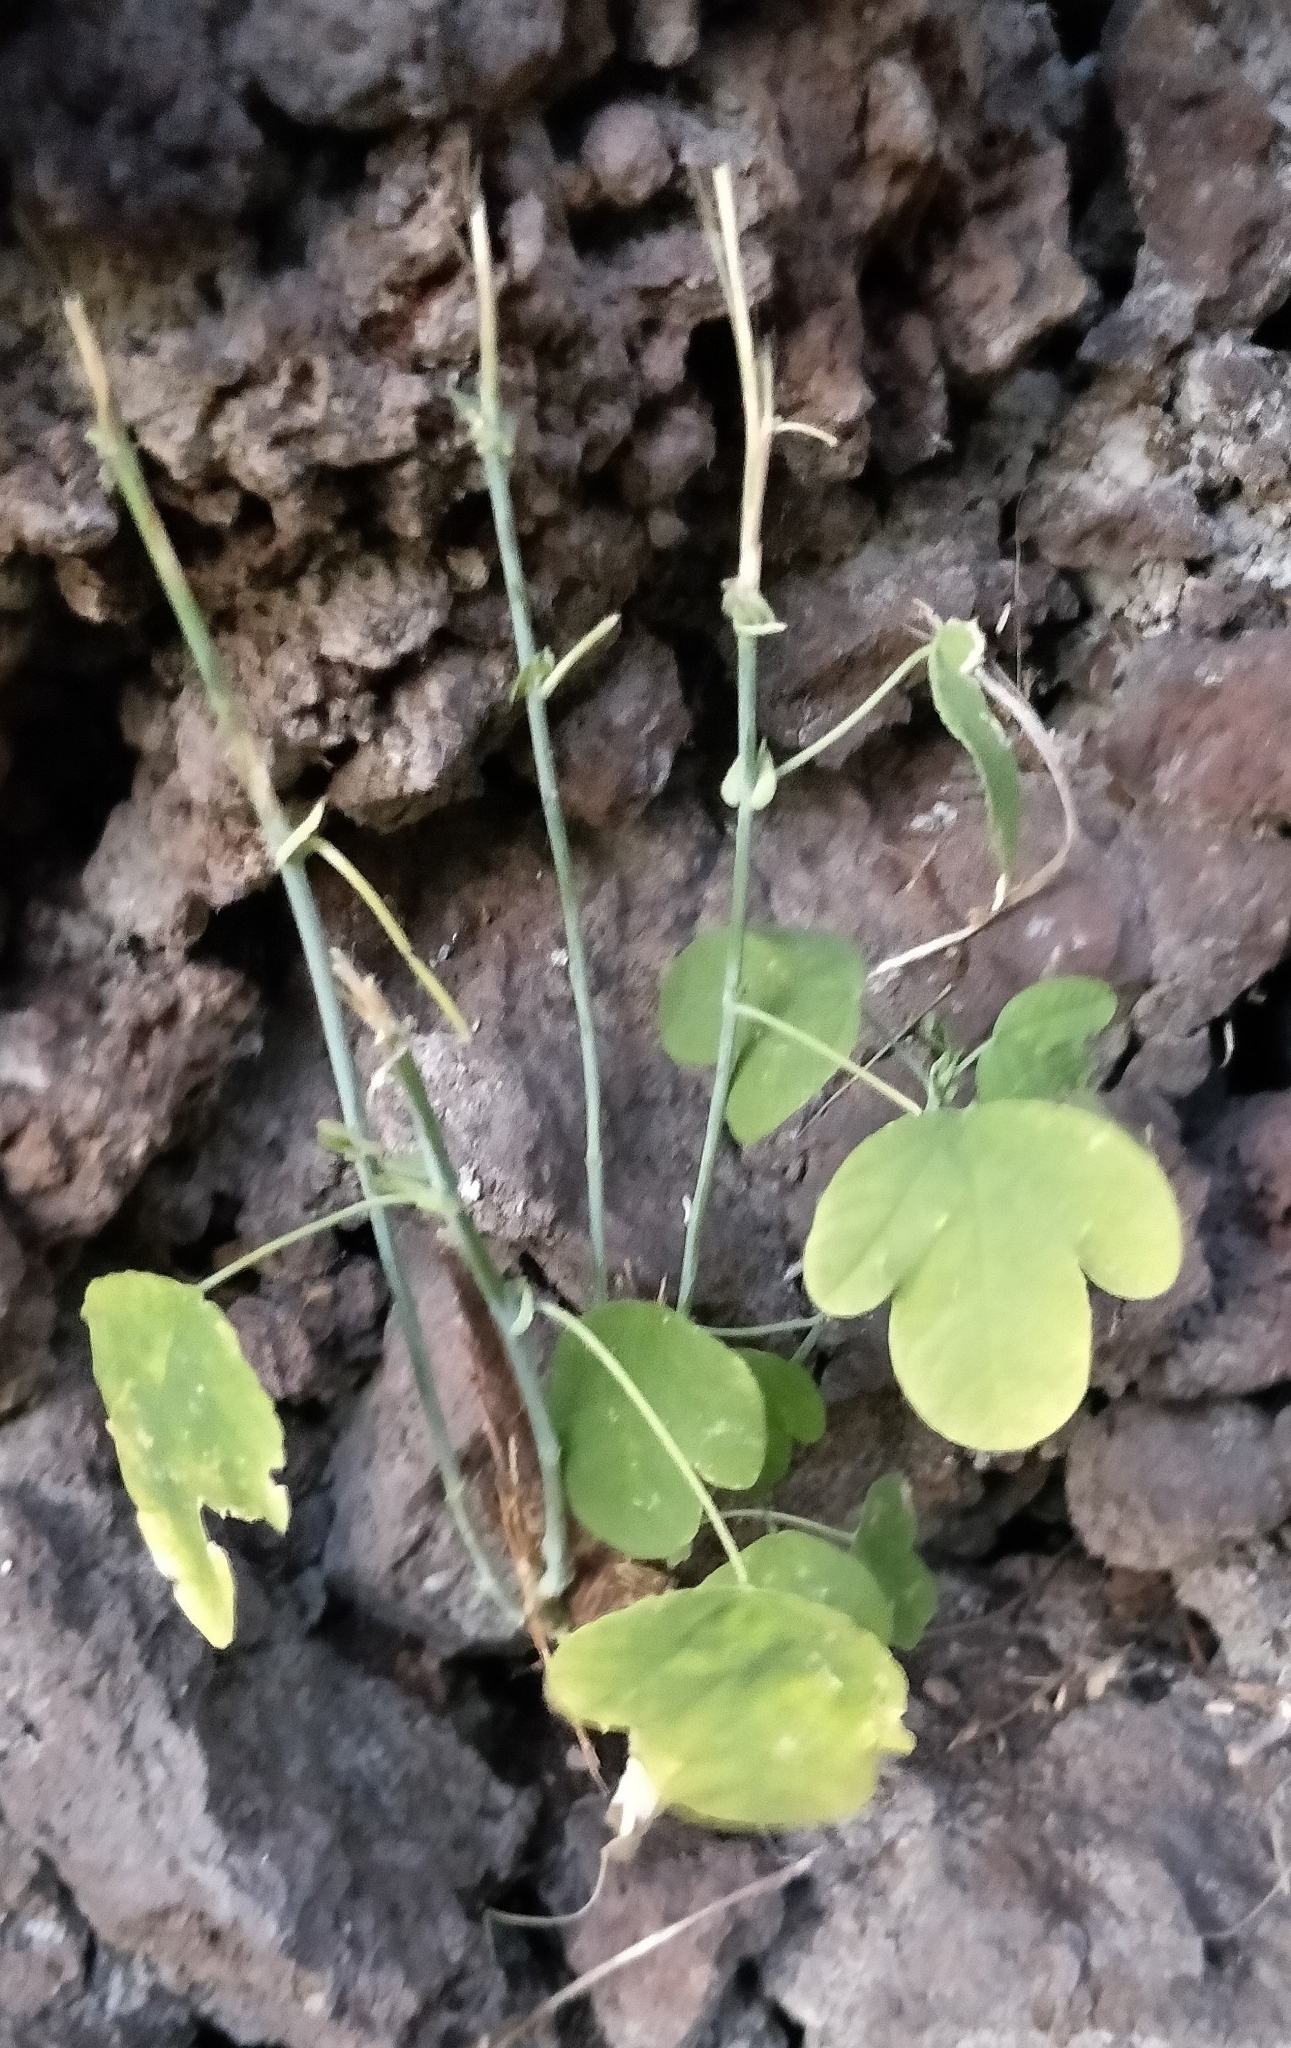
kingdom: Plantae
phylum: Tracheophyta
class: Magnoliopsida
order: Malpighiales
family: Passifloraceae
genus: Passiflora
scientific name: Passiflora subpeltata
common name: White passionflower
